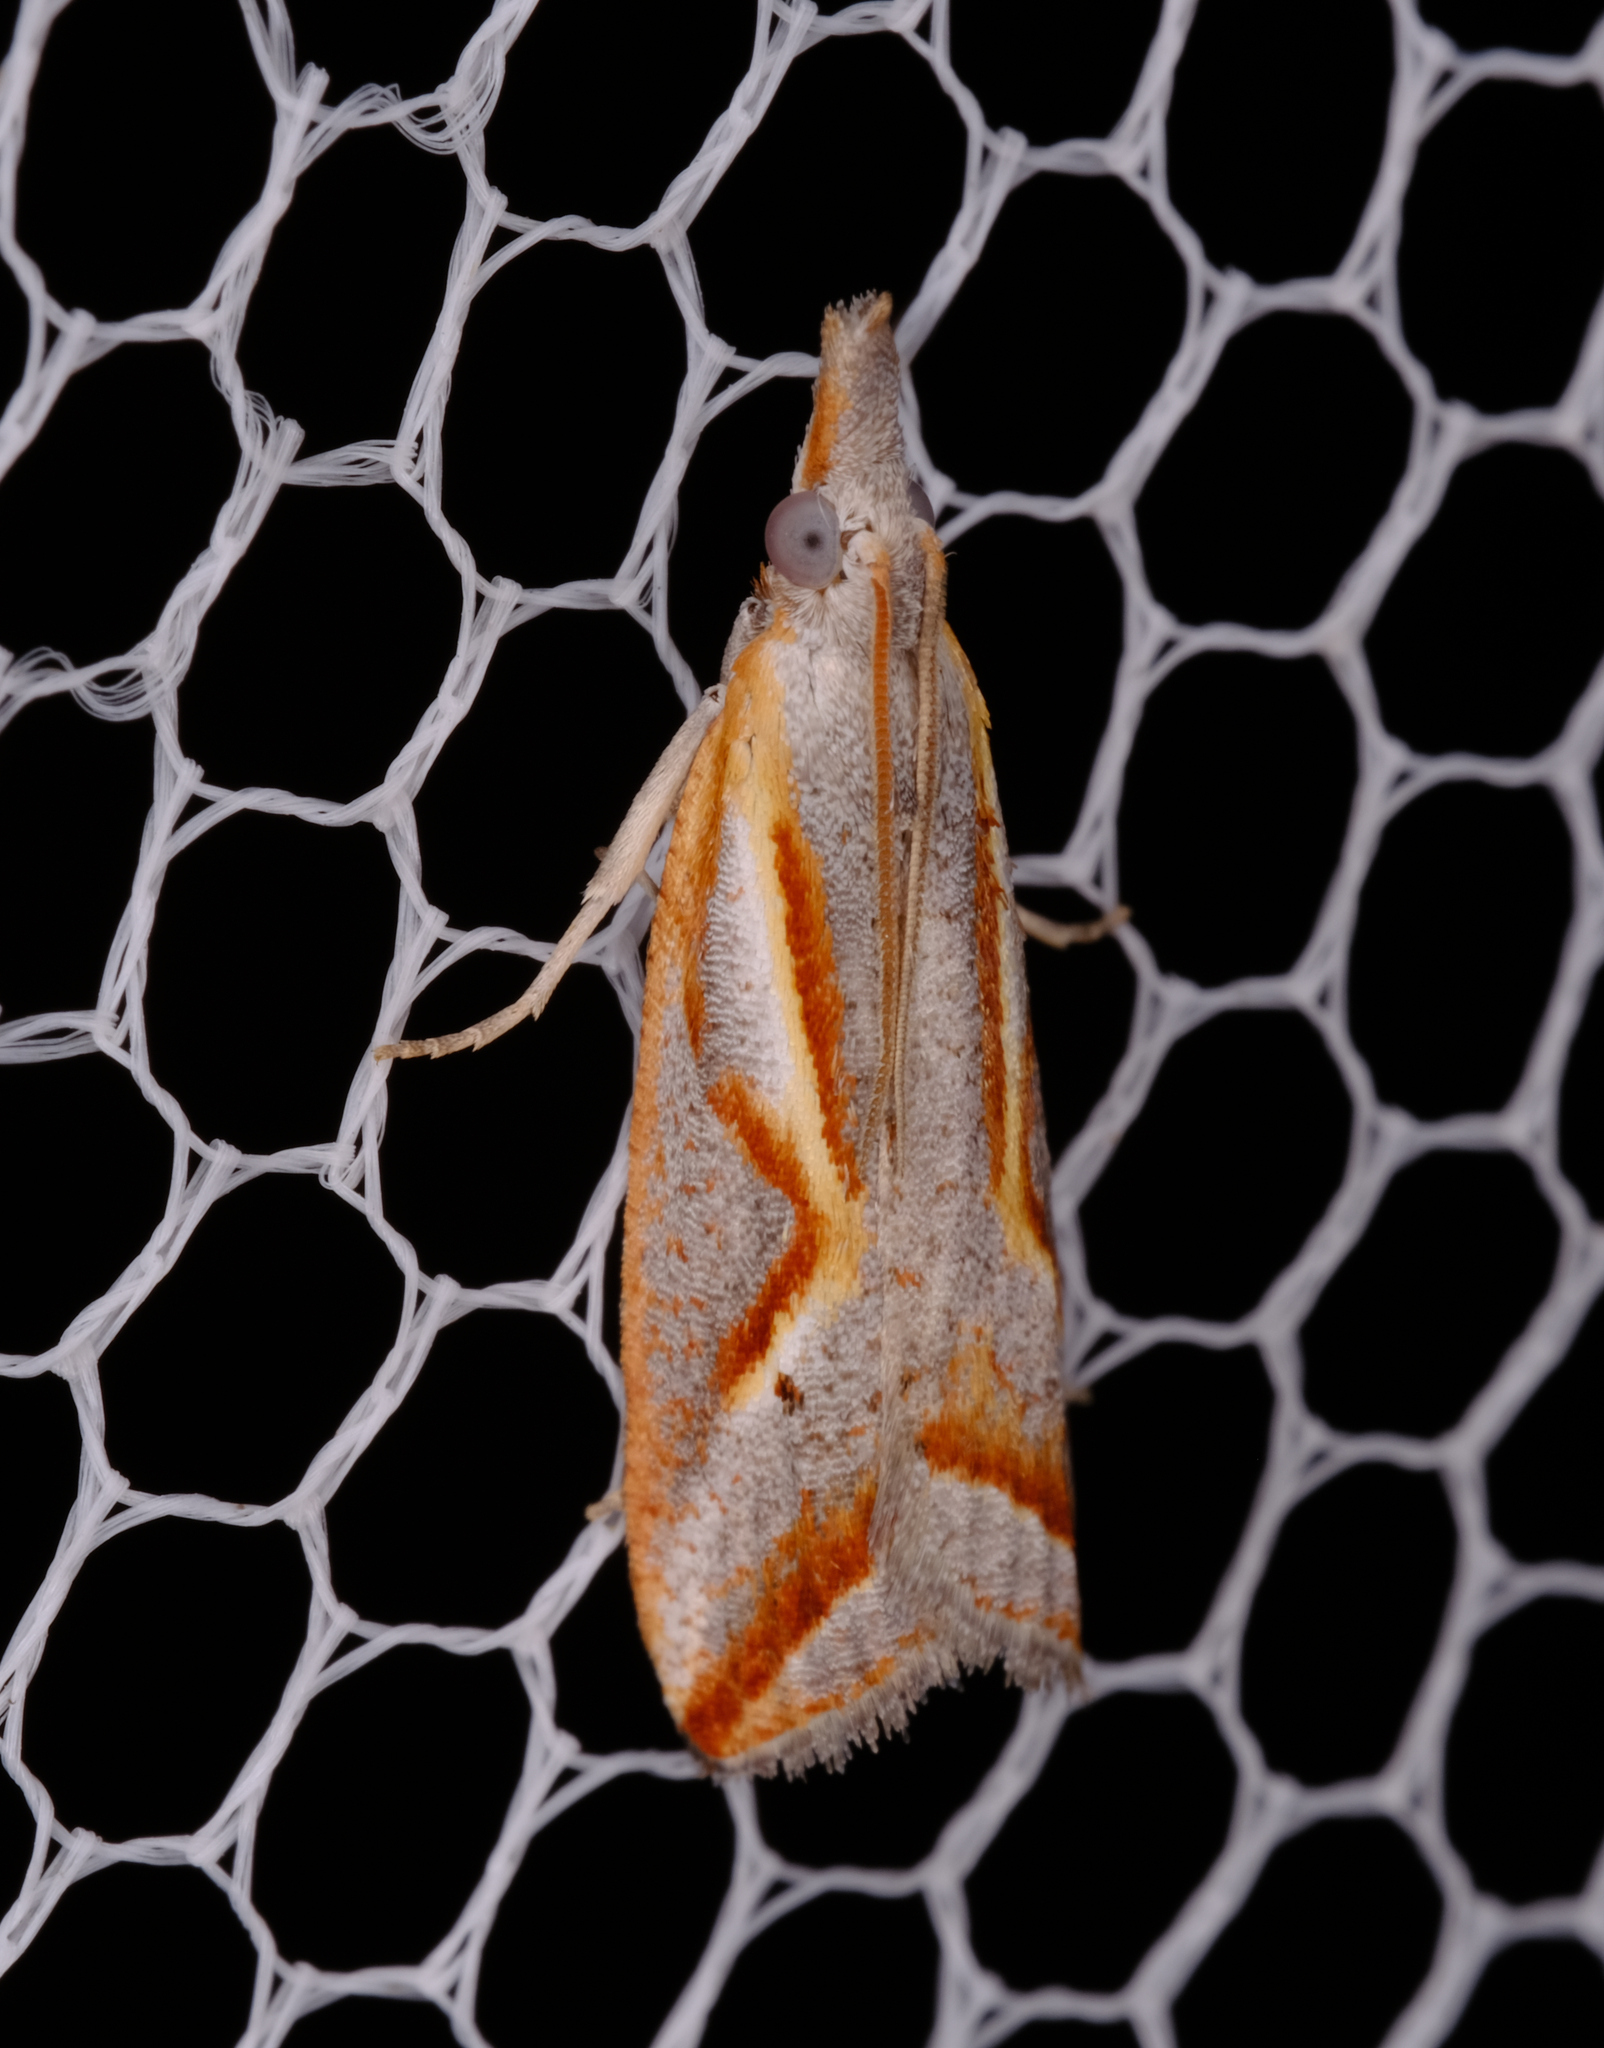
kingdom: Animalia
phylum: Arthropoda
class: Insecta
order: Lepidoptera
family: Tortricidae
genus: Arotrophora
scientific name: Arotrophora arcuatalis
